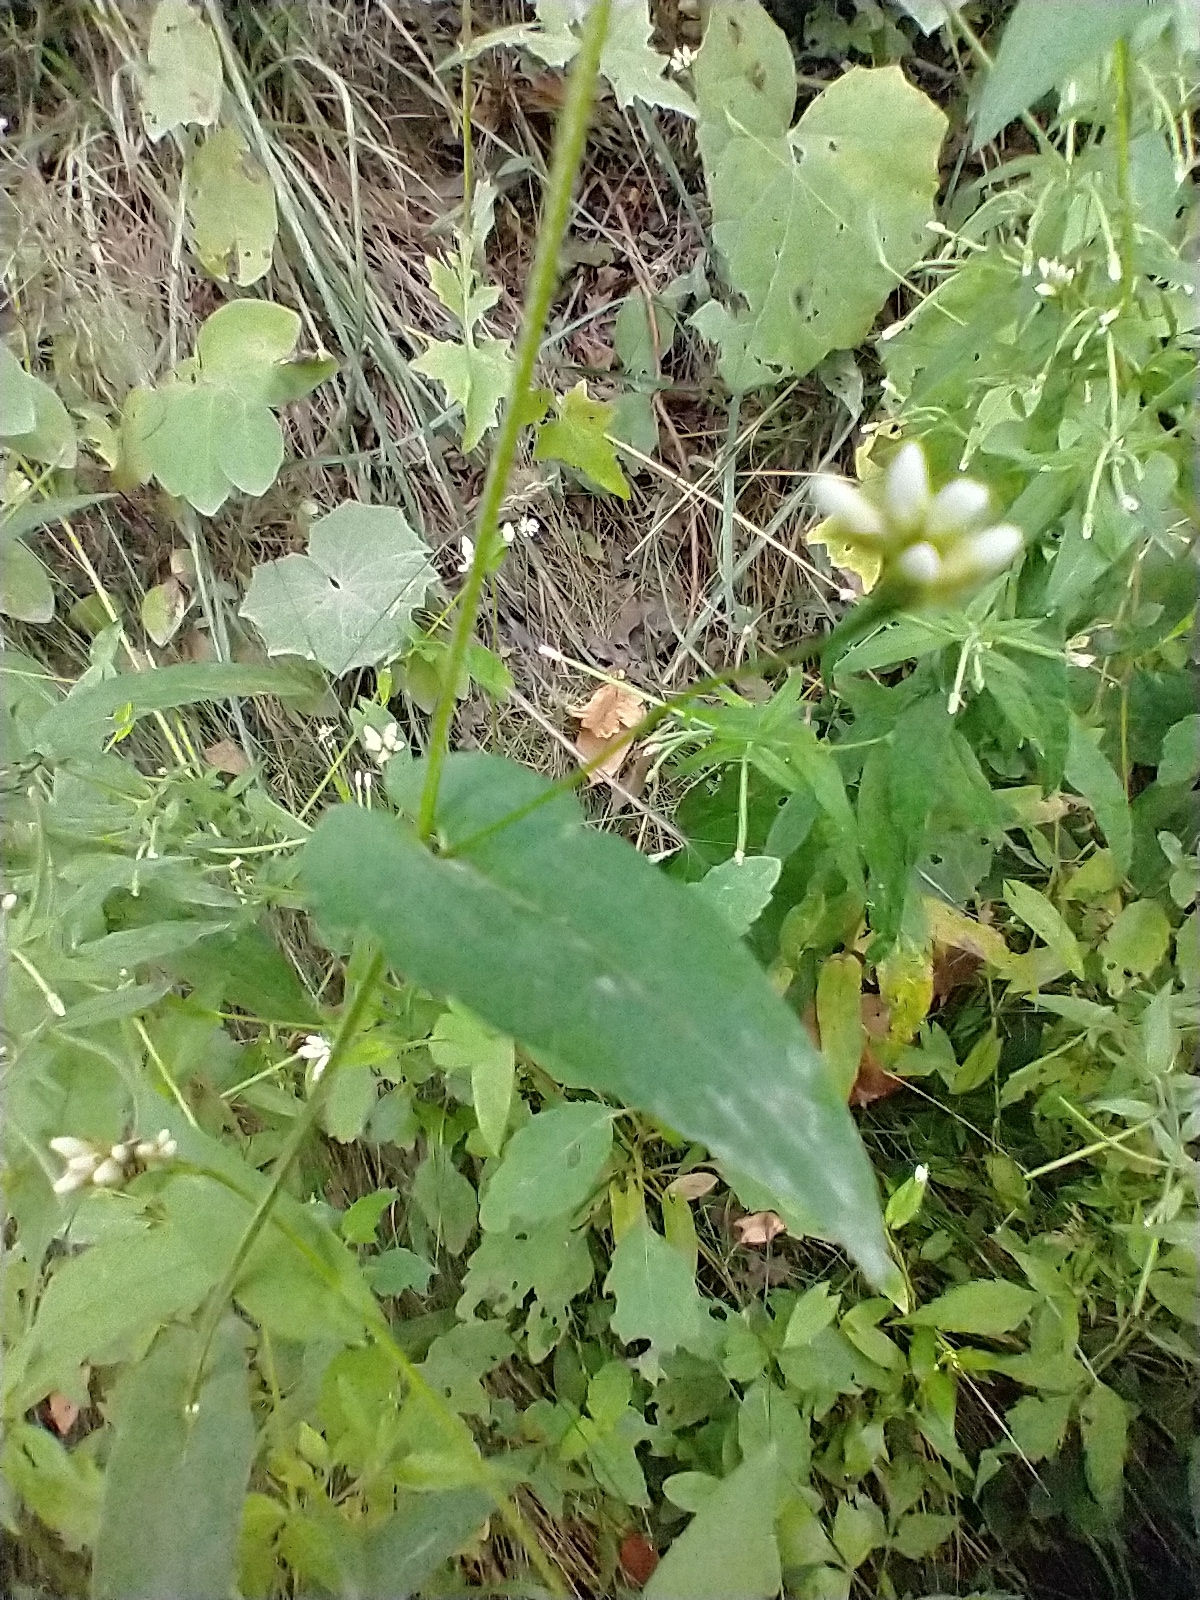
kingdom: Plantae
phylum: Tracheophyta
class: Magnoliopsida
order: Caryophyllales
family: Polygonaceae
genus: Persicaria
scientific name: Persicaria sagittata
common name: American tearthumb
